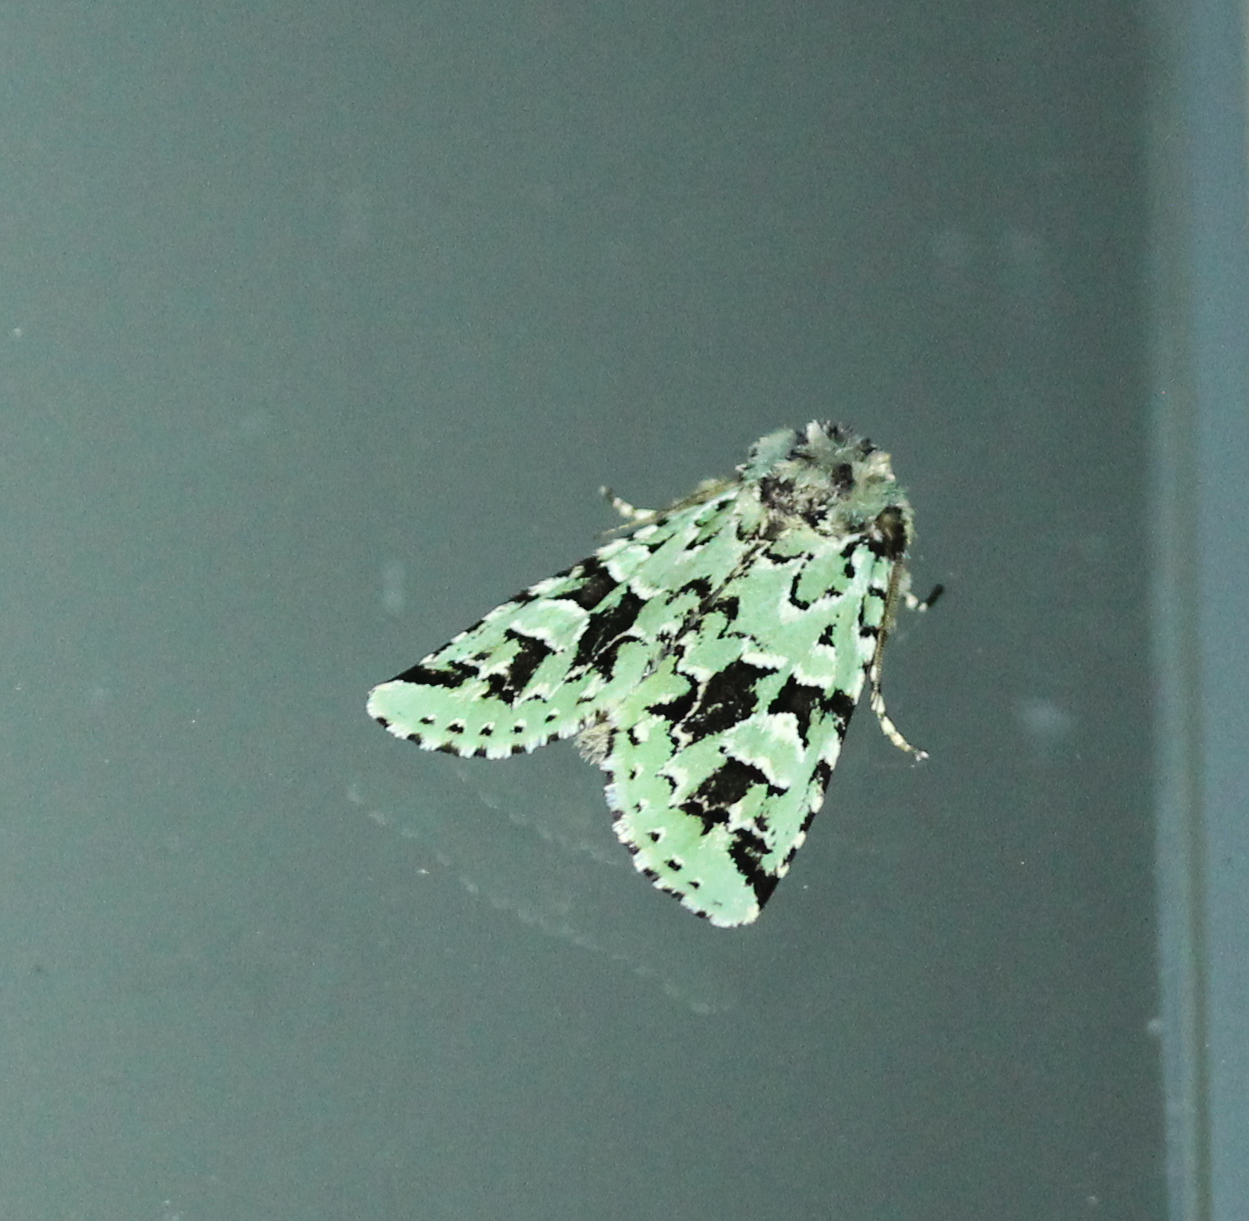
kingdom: Animalia
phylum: Arthropoda
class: Insecta
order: Lepidoptera
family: Noctuidae
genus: Feralia
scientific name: Feralia comstocki
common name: Comstock's sallow
